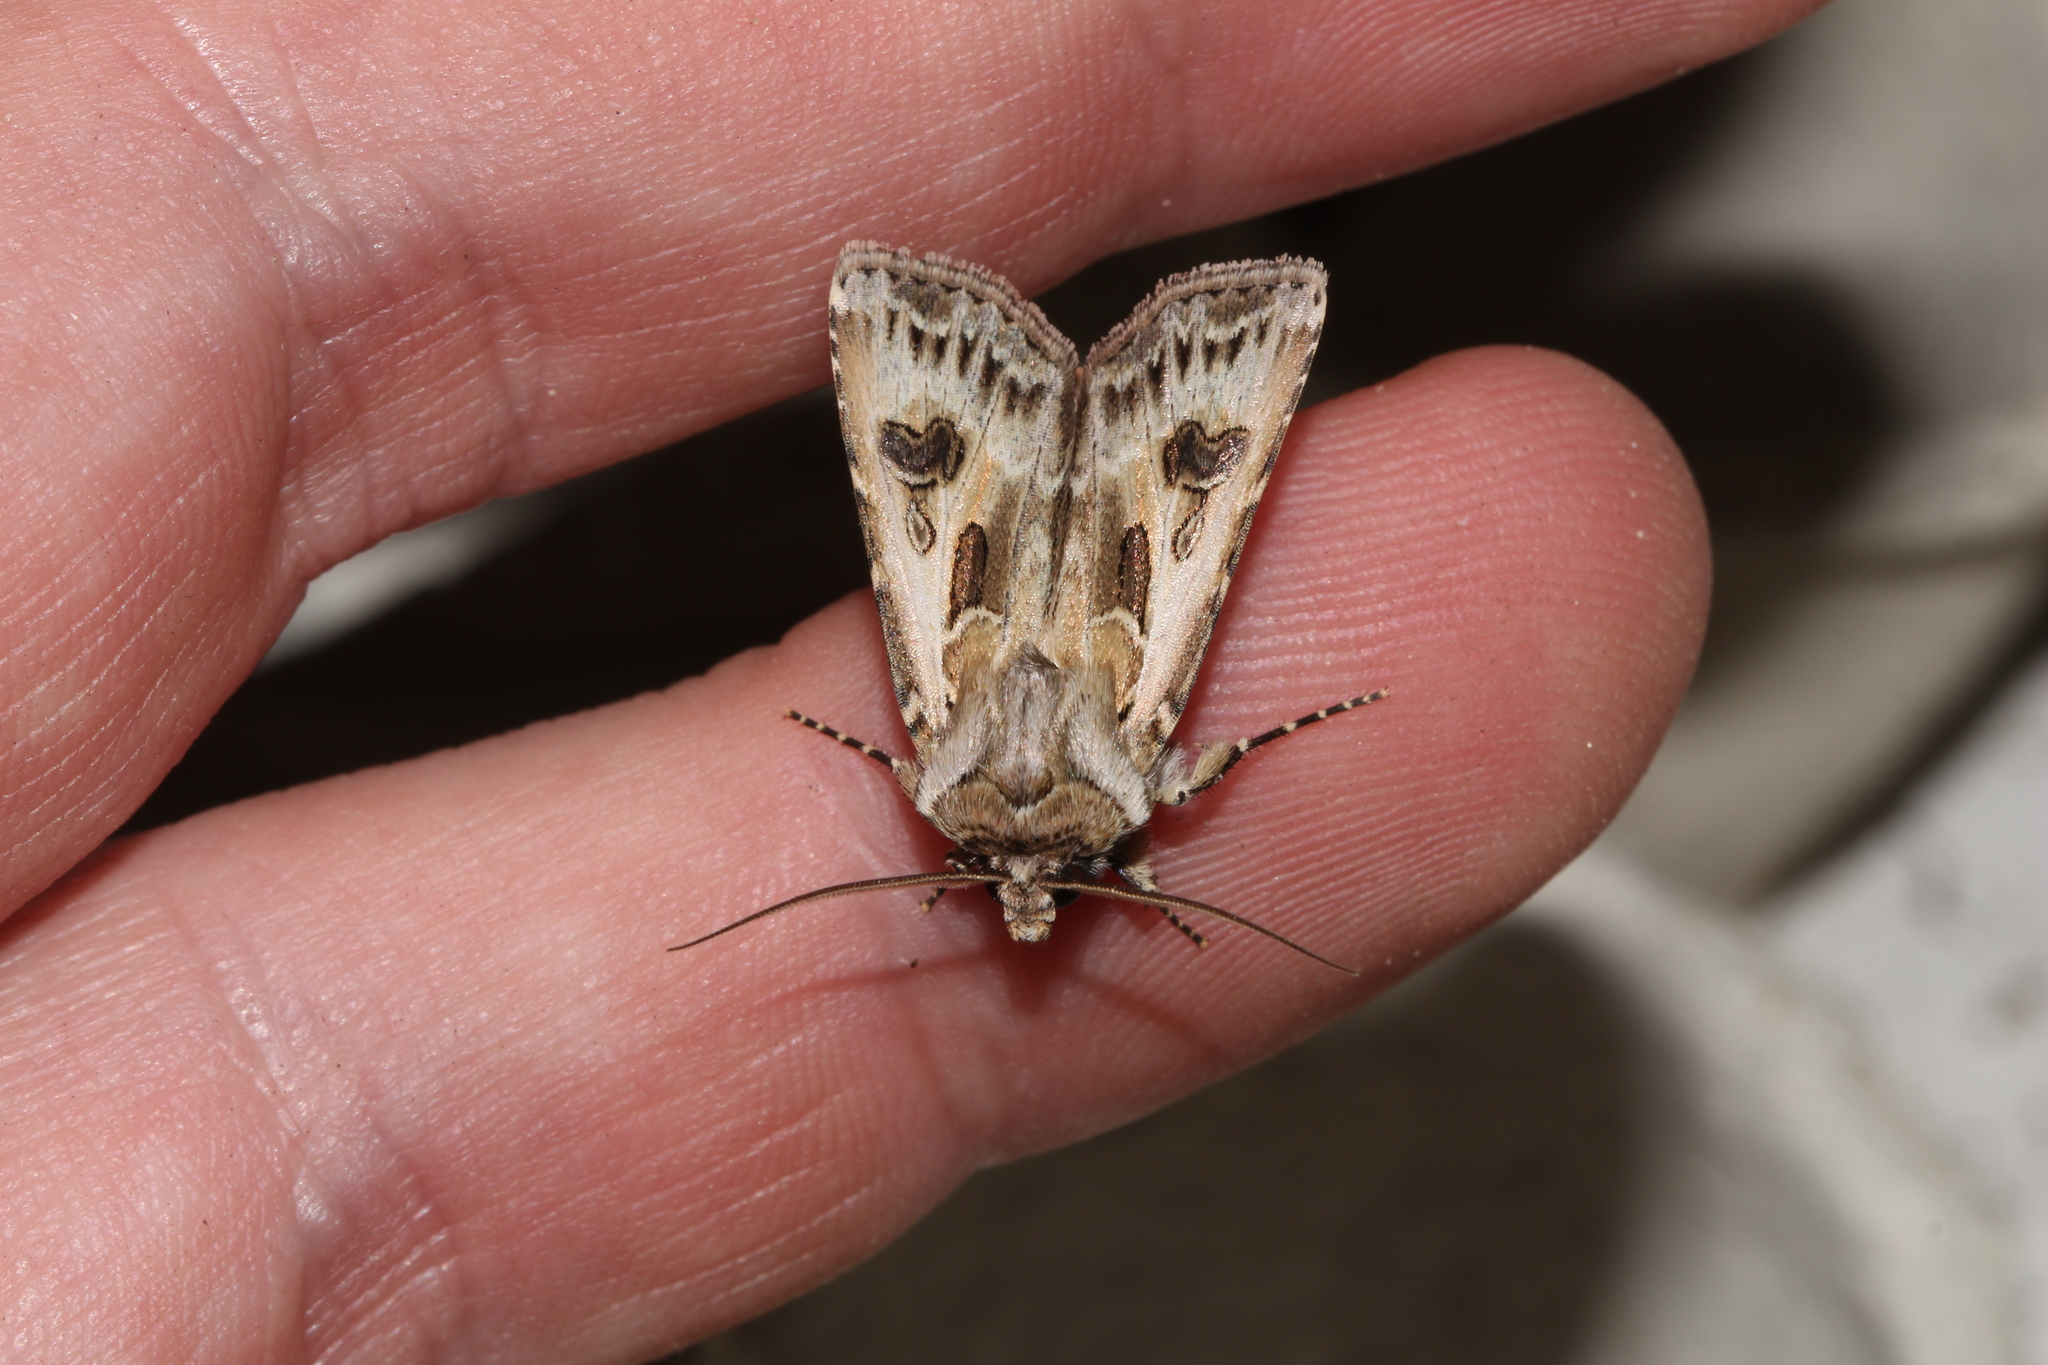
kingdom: Animalia
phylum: Arthropoda
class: Insecta
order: Lepidoptera
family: Noctuidae
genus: Agrotis
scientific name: Agrotis vestigialis
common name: Archer's dart
